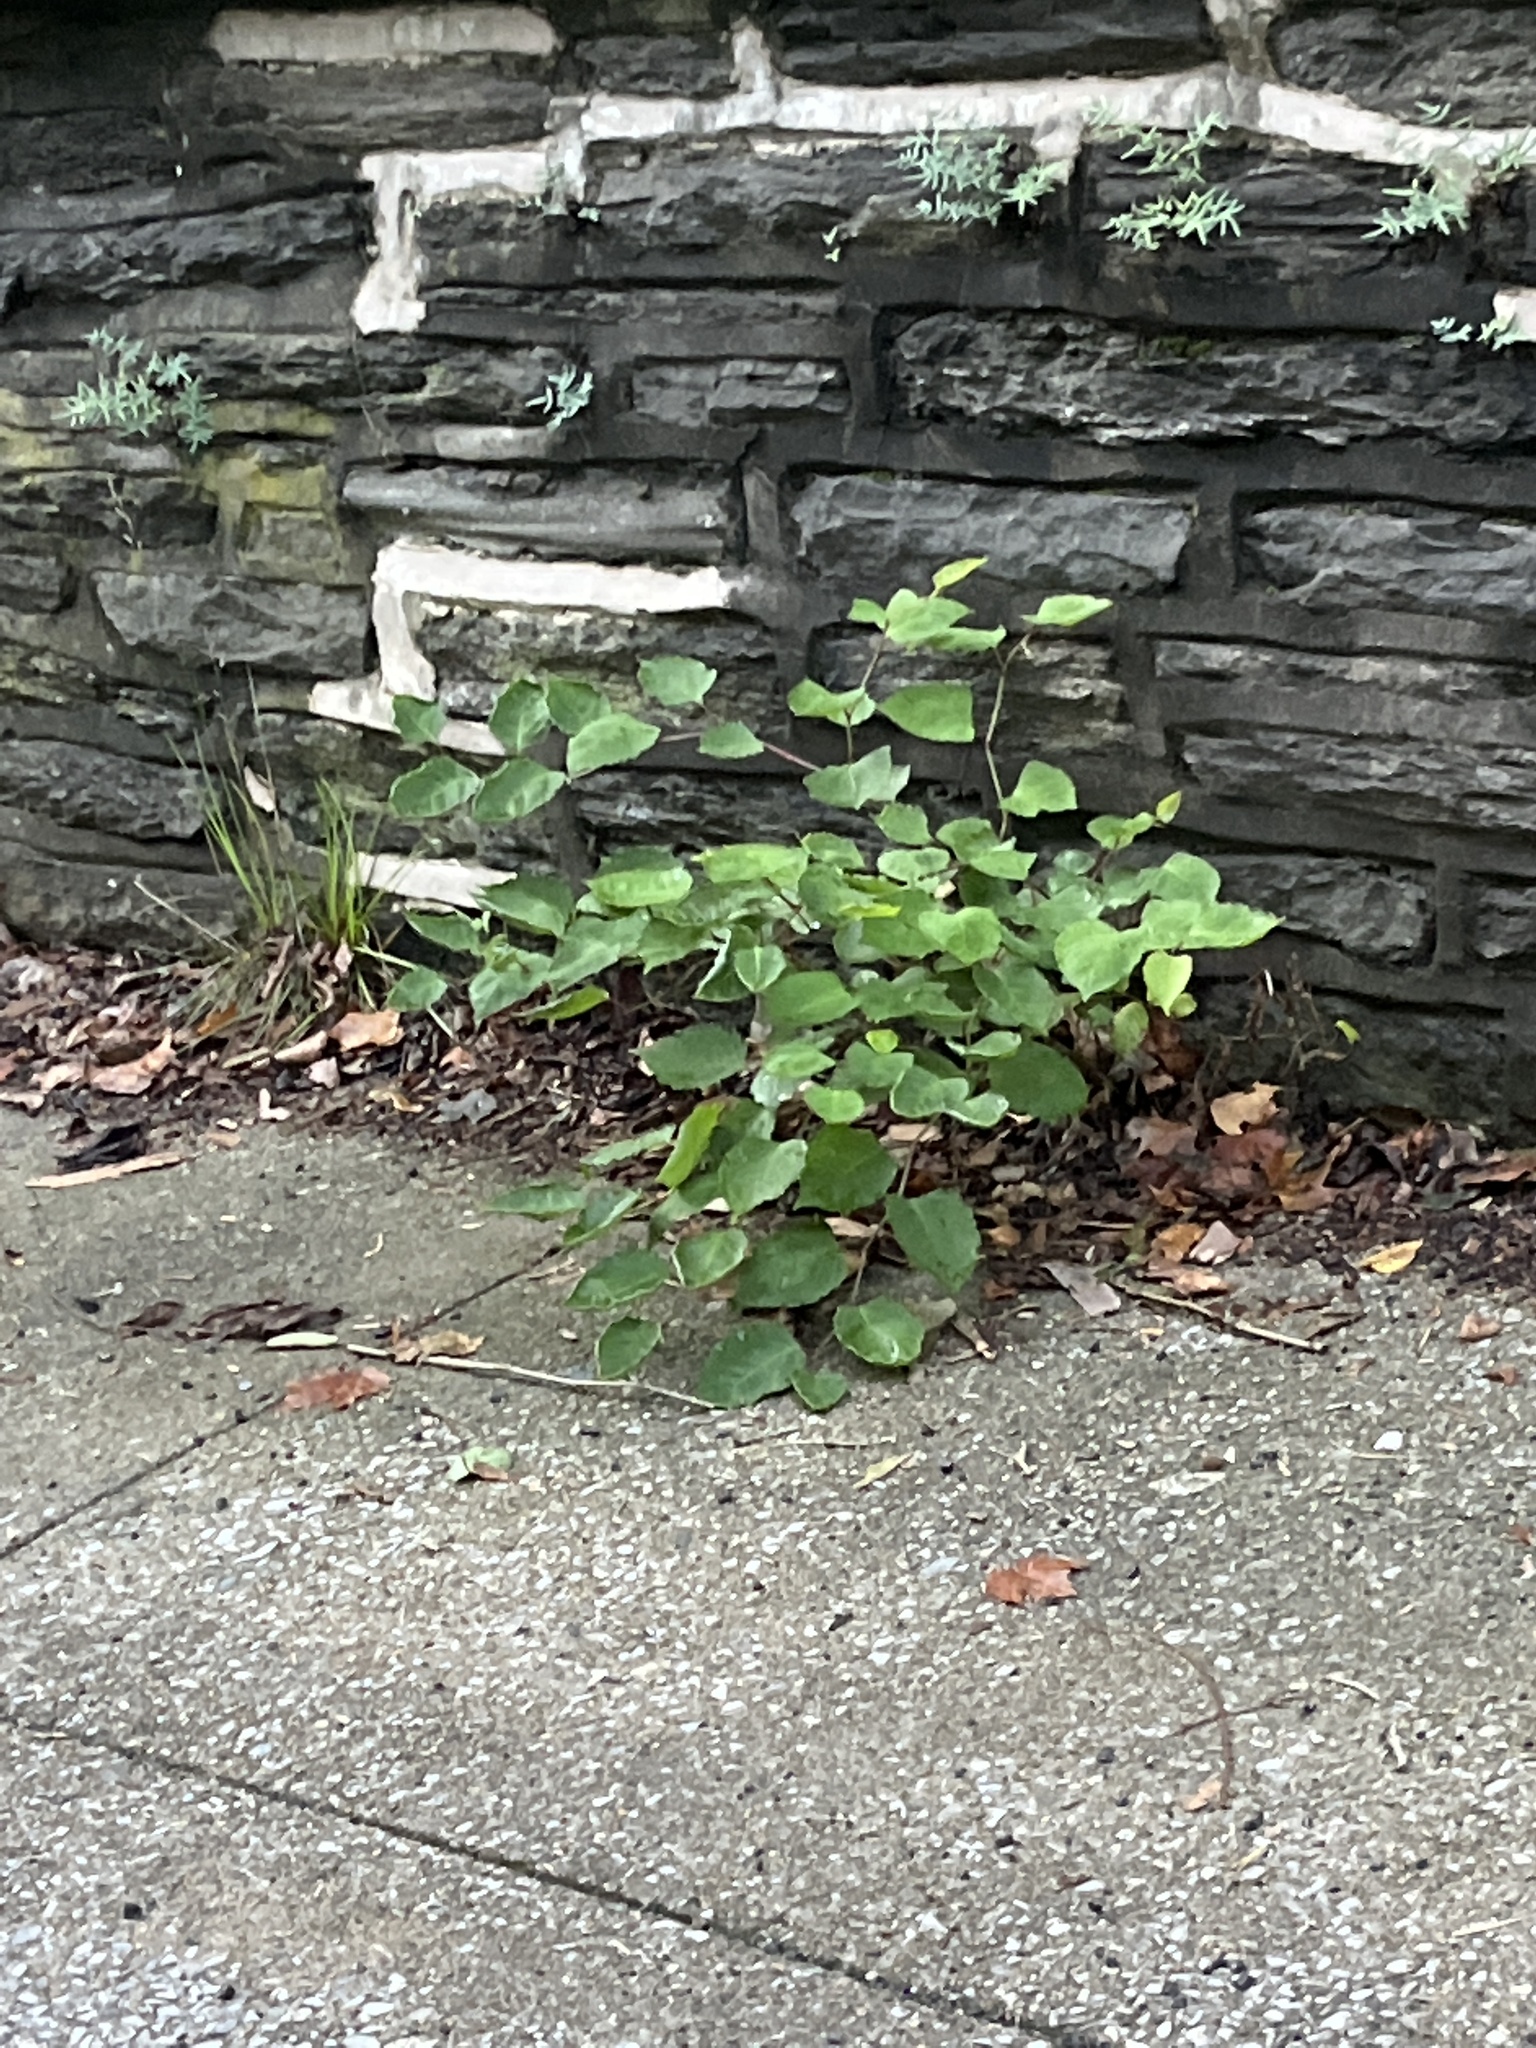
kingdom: Plantae
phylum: Tracheophyta
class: Magnoliopsida
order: Caryophyllales
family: Polygonaceae
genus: Reynoutria
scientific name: Reynoutria japonica
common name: Japanese knotweed
